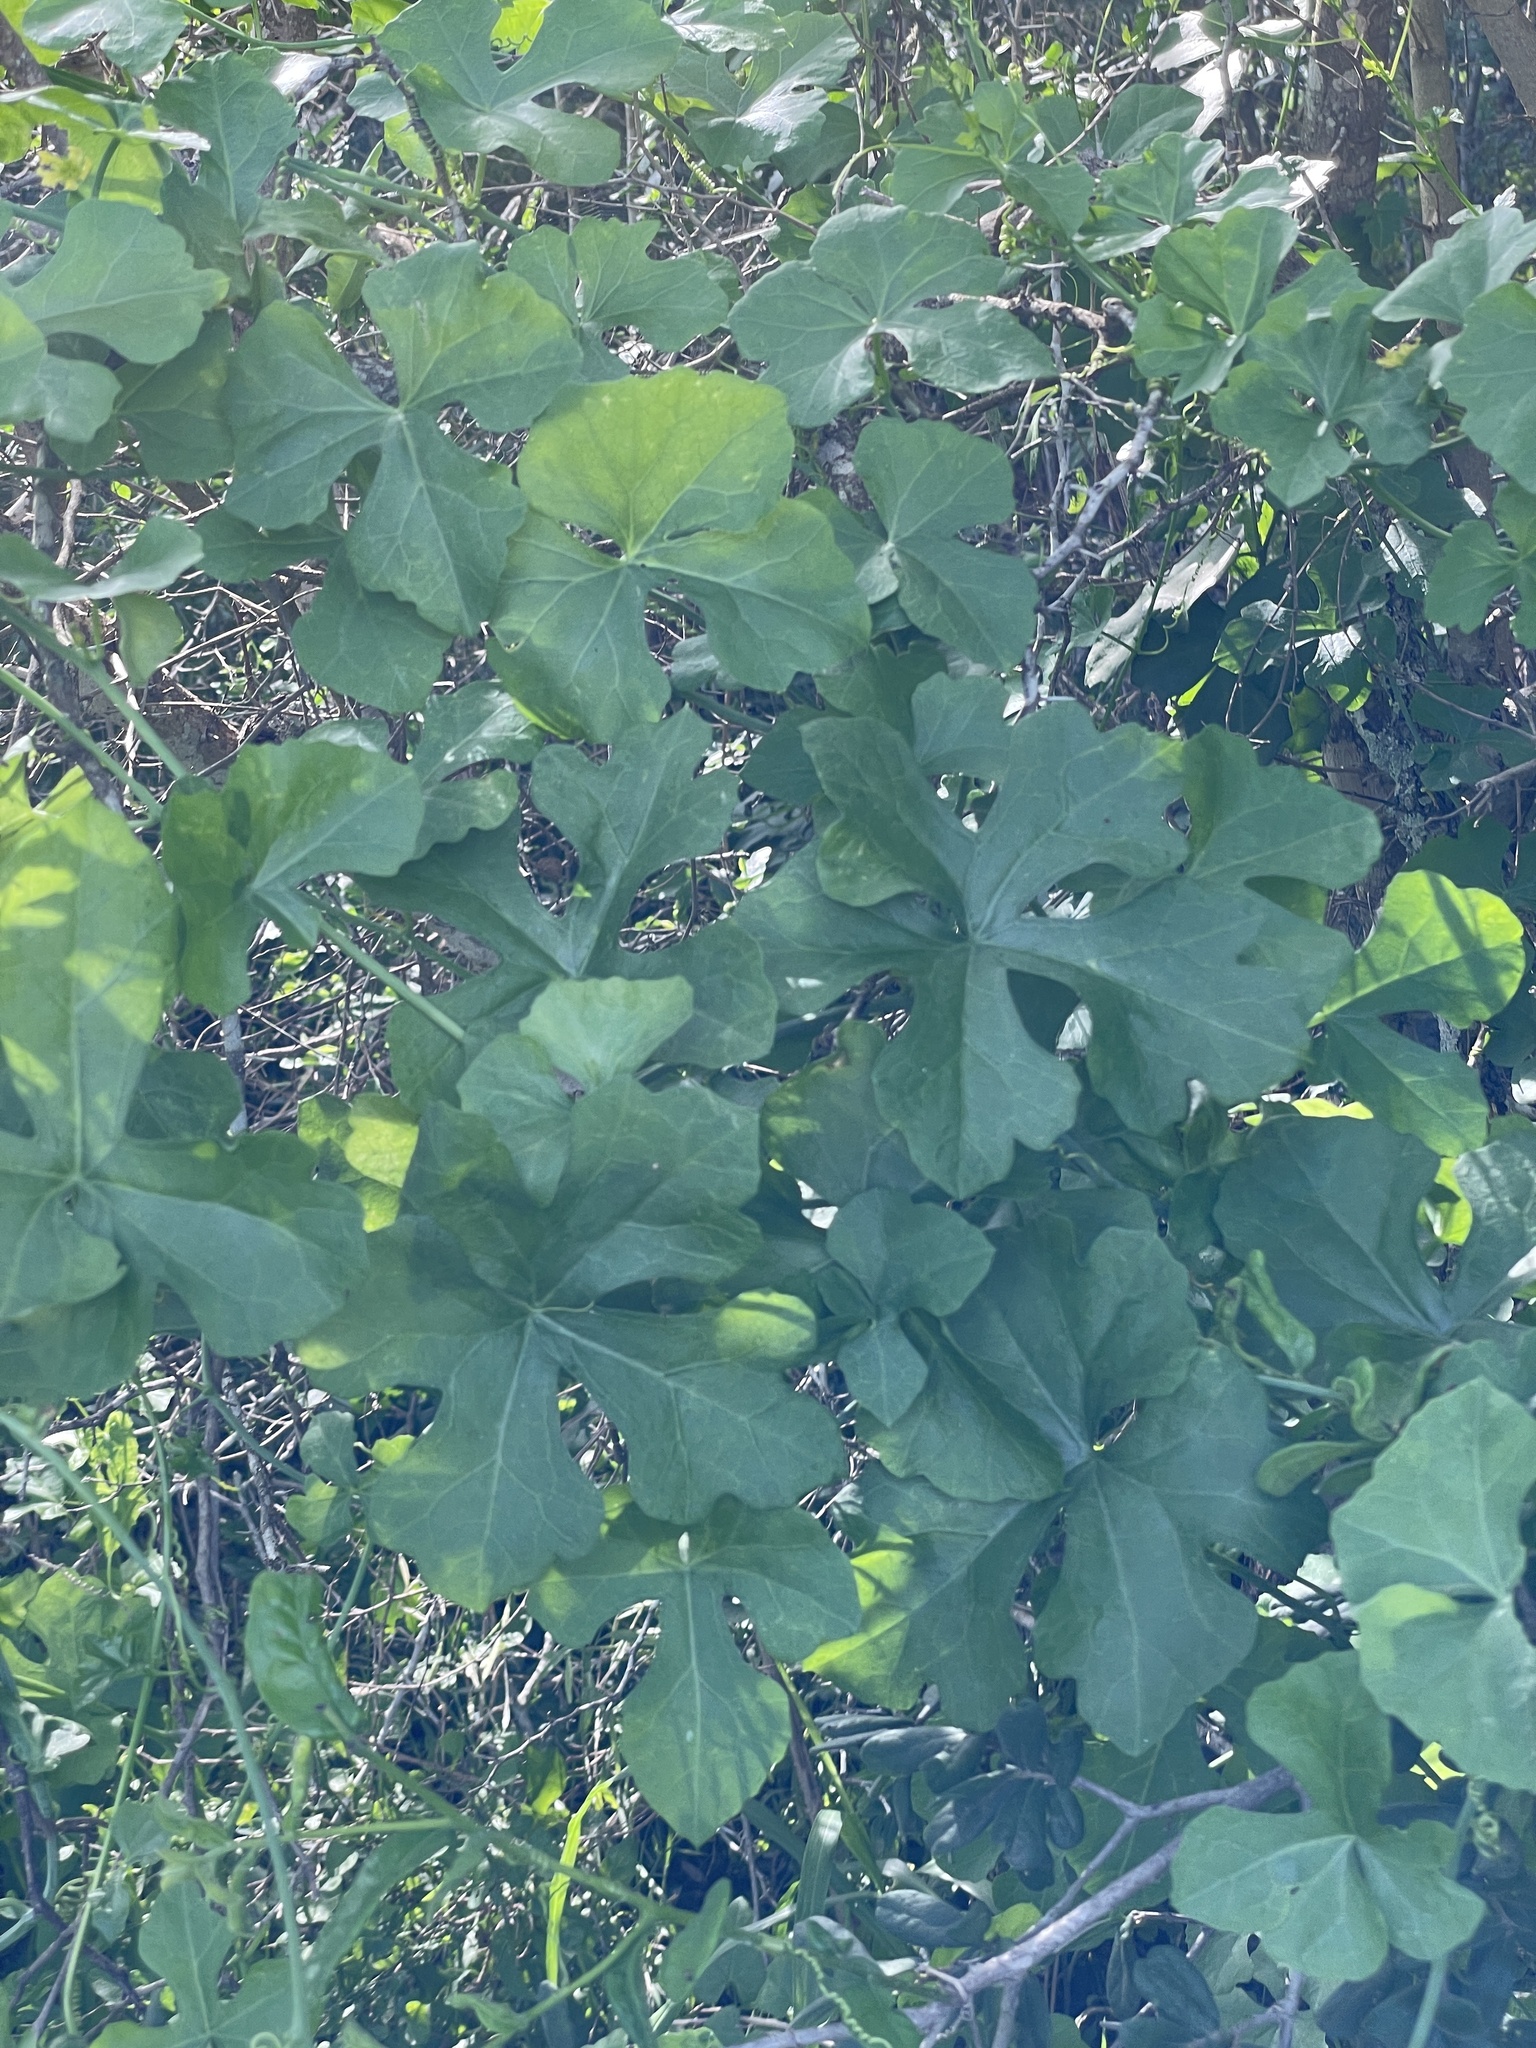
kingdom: Plantae
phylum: Tracheophyta
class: Magnoliopsida
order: Cucurbitales
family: Cucurbitaceae
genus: Ibervillea
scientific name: Ibervillea lindheimeri
